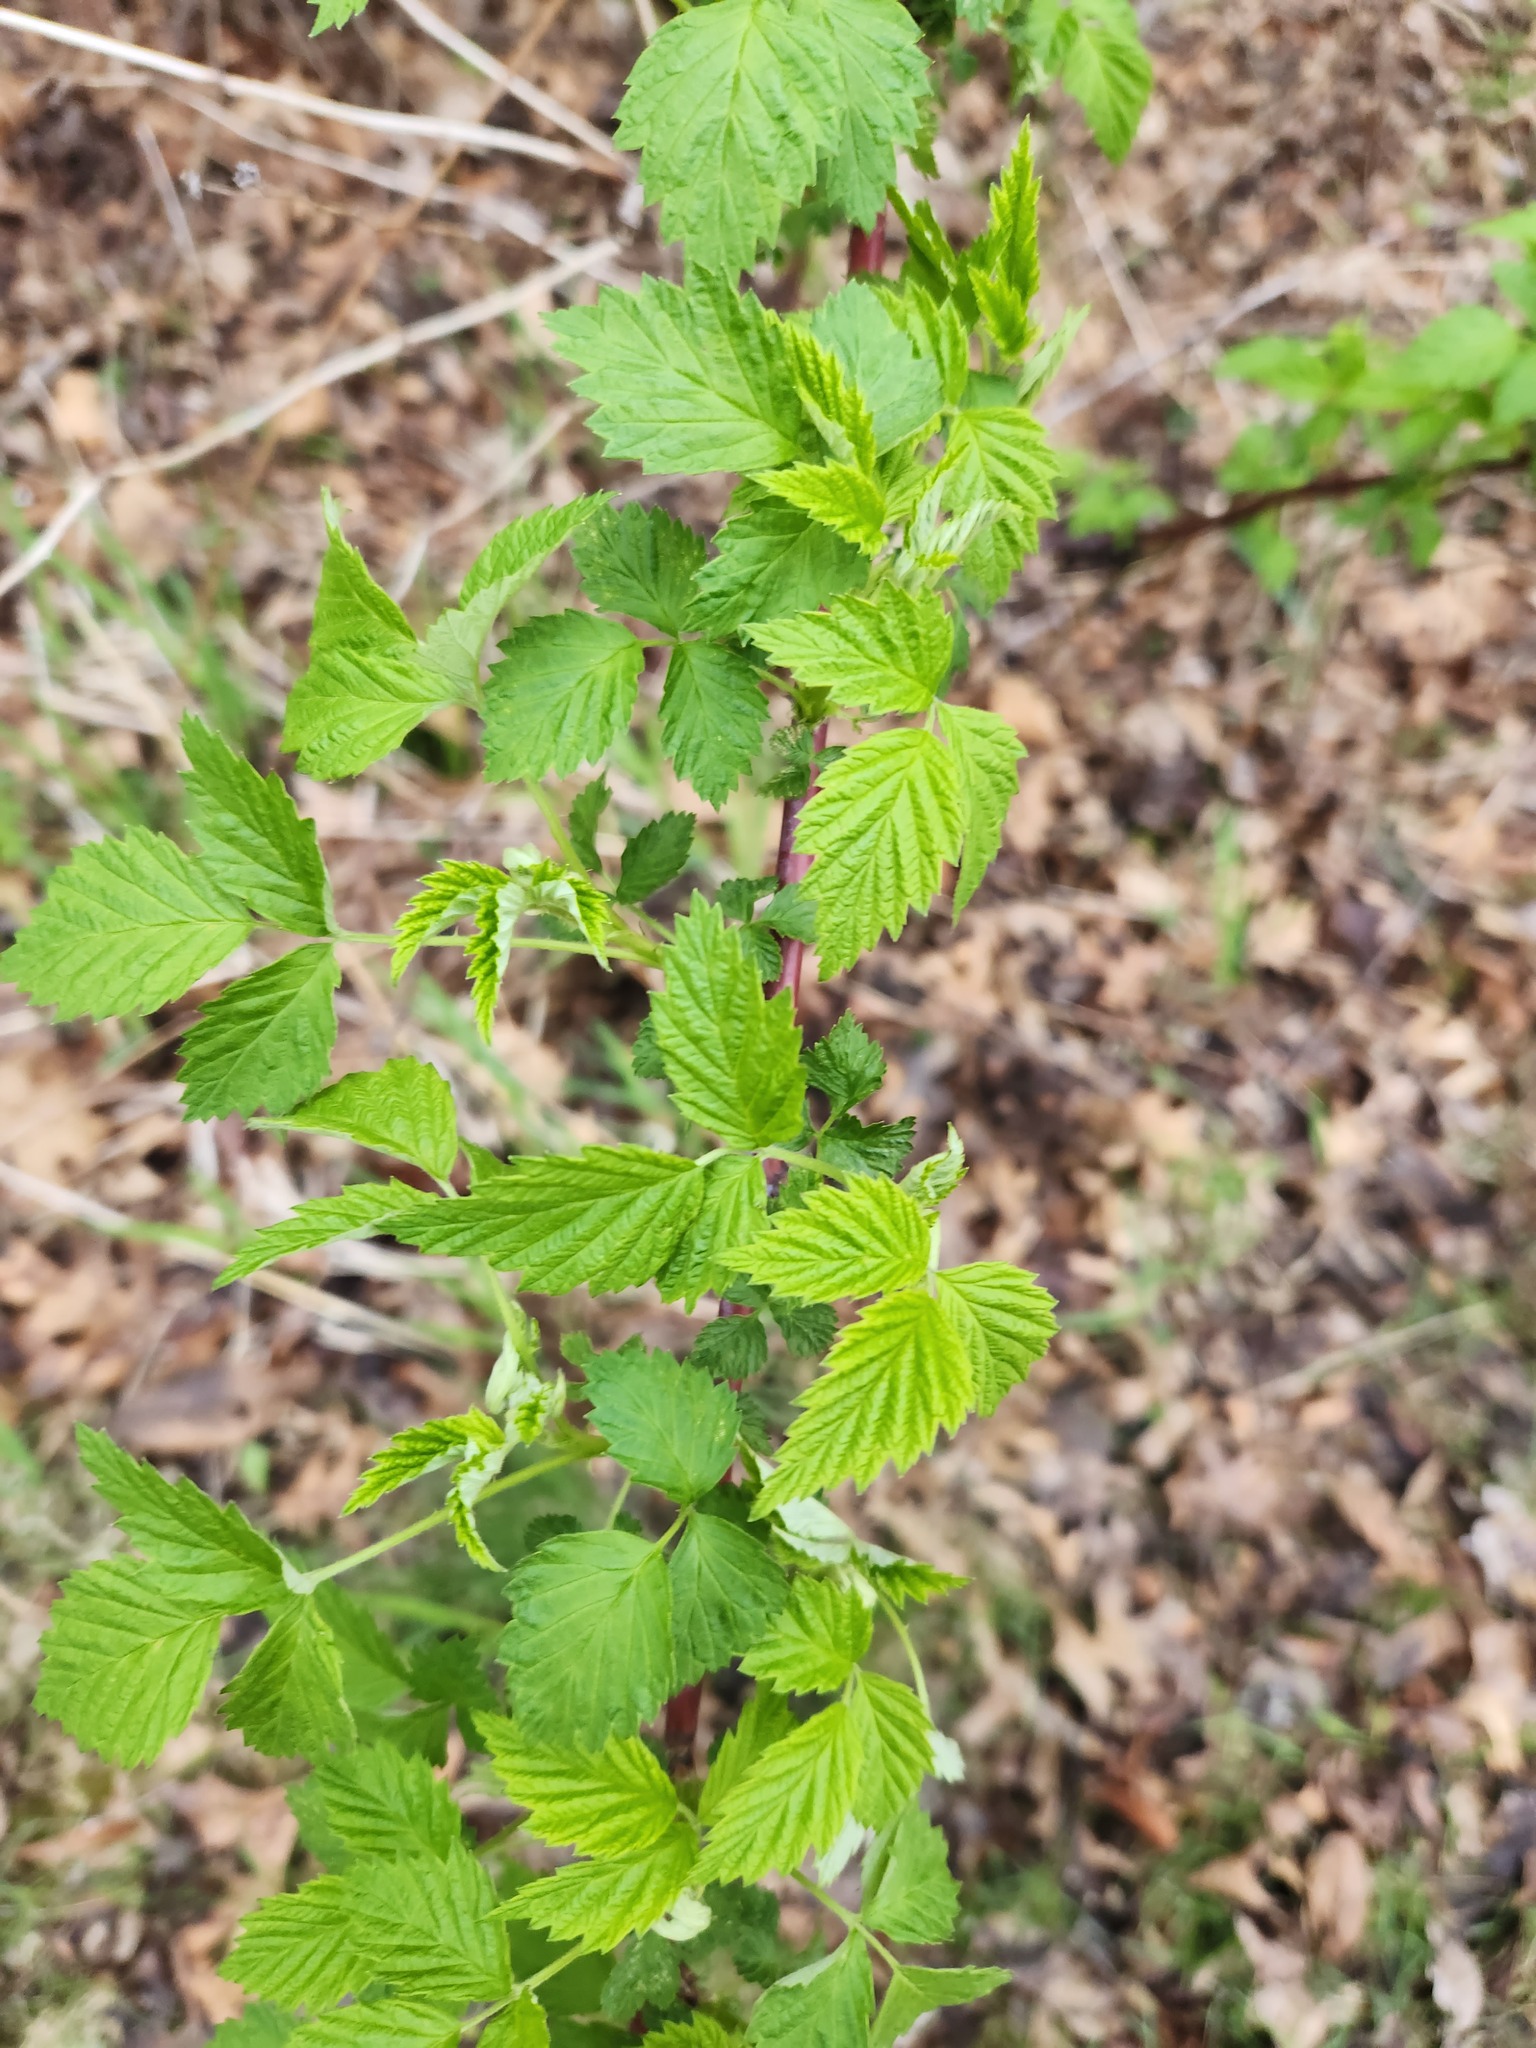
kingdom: Plantae
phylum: Tracheophyta
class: Magnoliopsida
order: Rosales
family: Rosaceae
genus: Rubus
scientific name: Rubus occidentalis
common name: Black raspberry
